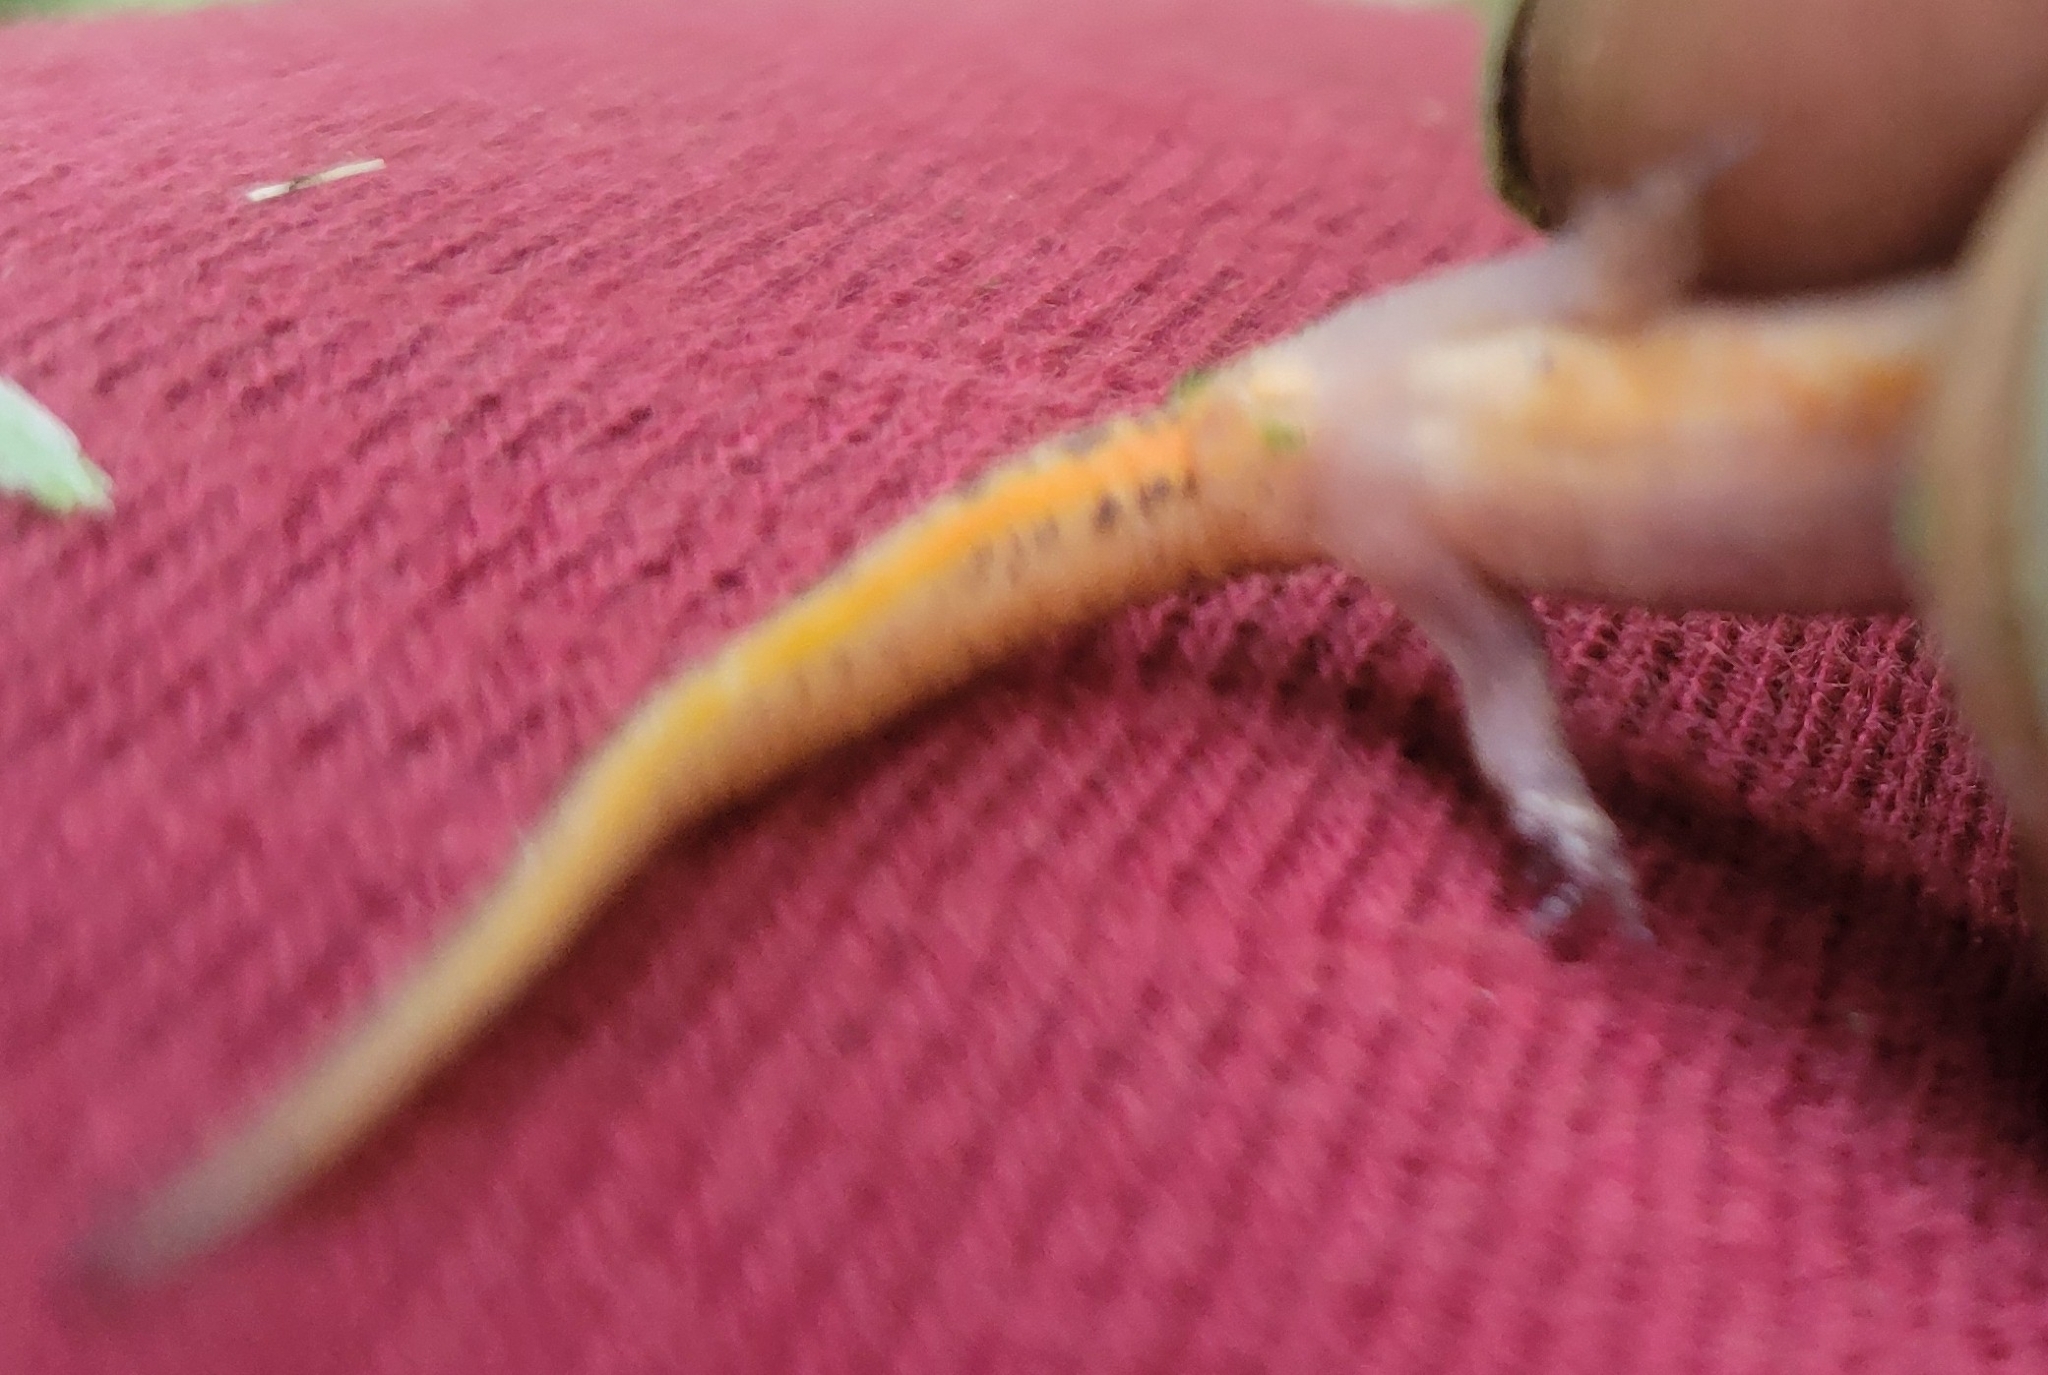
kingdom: Animalia
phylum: Chordata
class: Amphibia
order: Caudata
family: Salamandridae
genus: Lissotriton
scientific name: Lissotriton vulgaris
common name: Smooth newt
